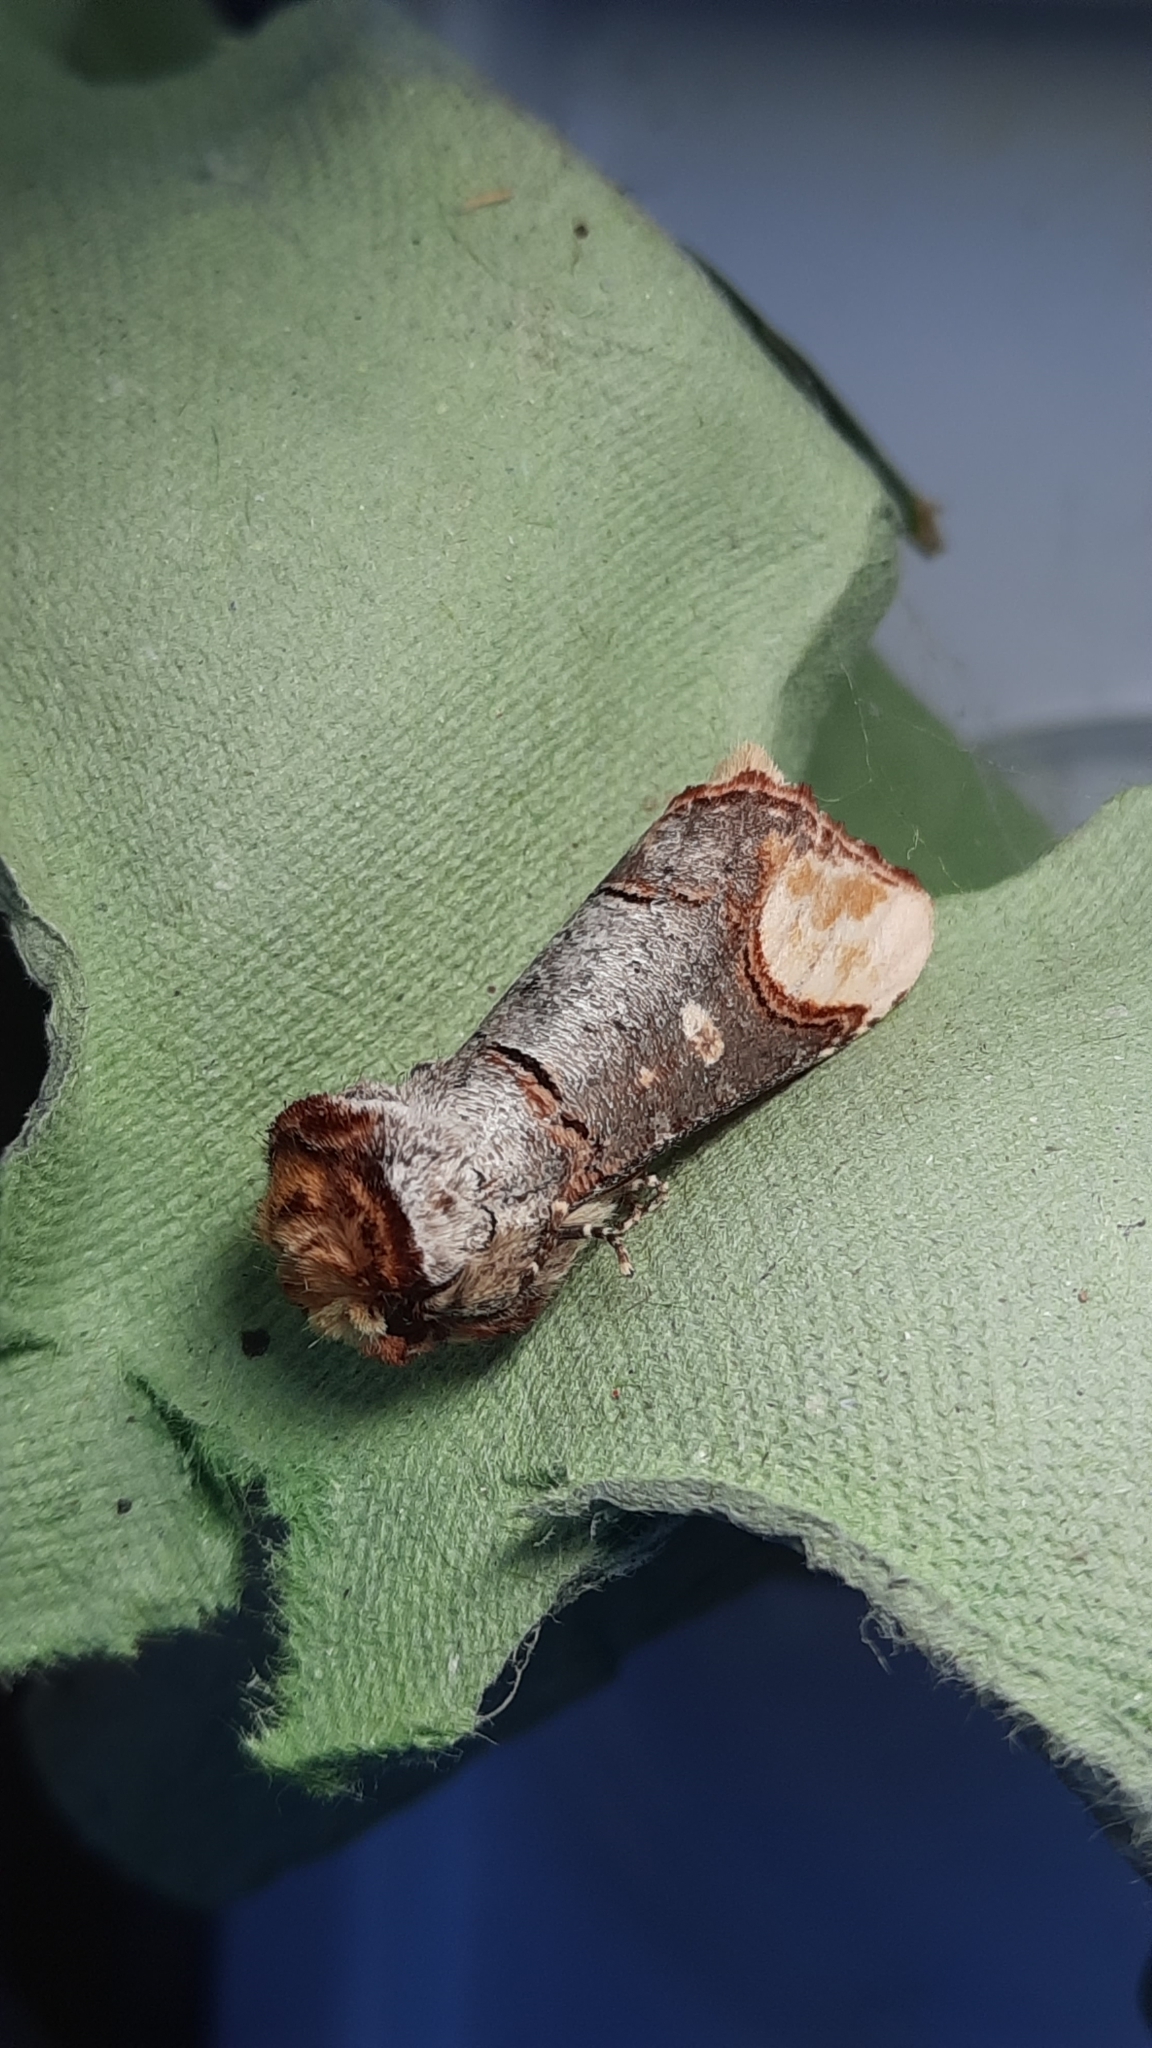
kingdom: Animalia
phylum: Arthropoda
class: Insecta
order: Lepidoptera
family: Notodontidae
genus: Phalera
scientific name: Phalera bucephala
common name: Buff-tip
